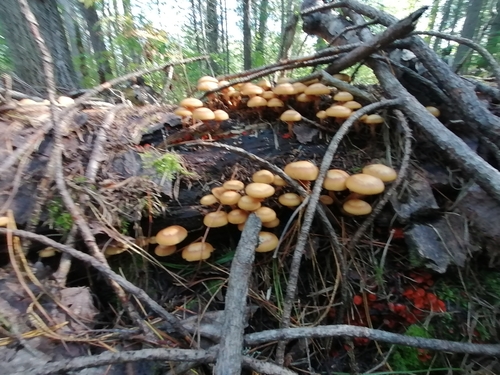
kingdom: Fungi
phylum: Basidiomycota
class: Agaricomycetes
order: Agaricales
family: Strophariaceae
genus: Kuehneromyces
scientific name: Kuehneromyces mutabilis
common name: Sheathed woodtuft
